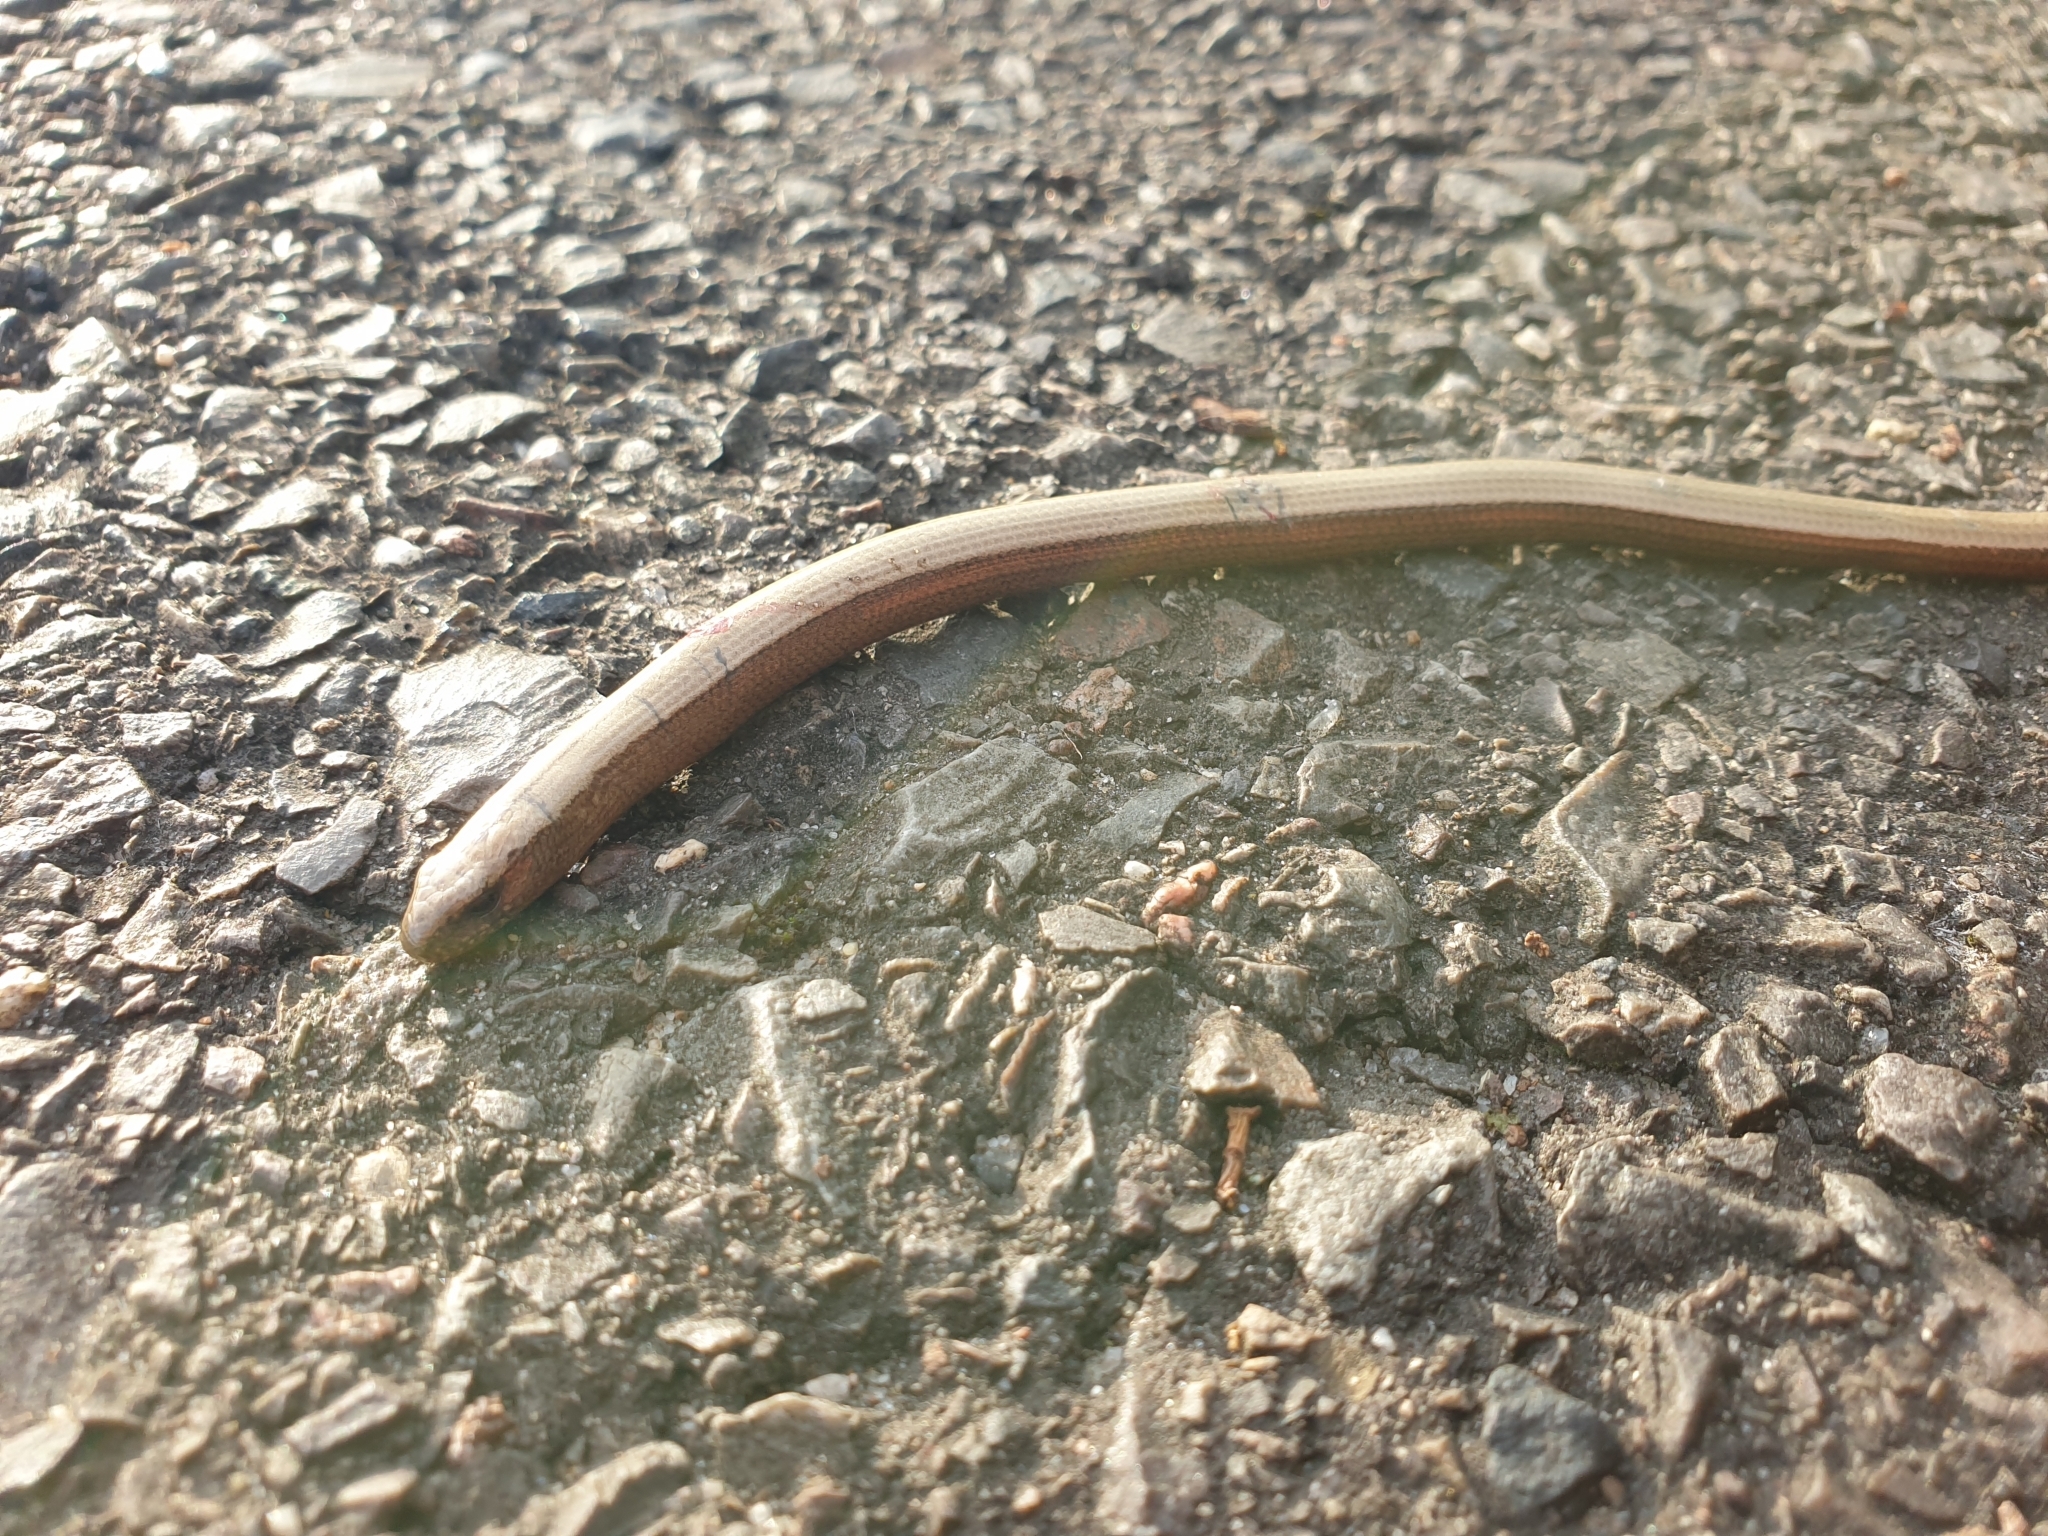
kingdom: Animalia
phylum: Chordata
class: Squamata
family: Anguidae
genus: Anguis
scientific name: Anguis fragilis
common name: Slow worm
